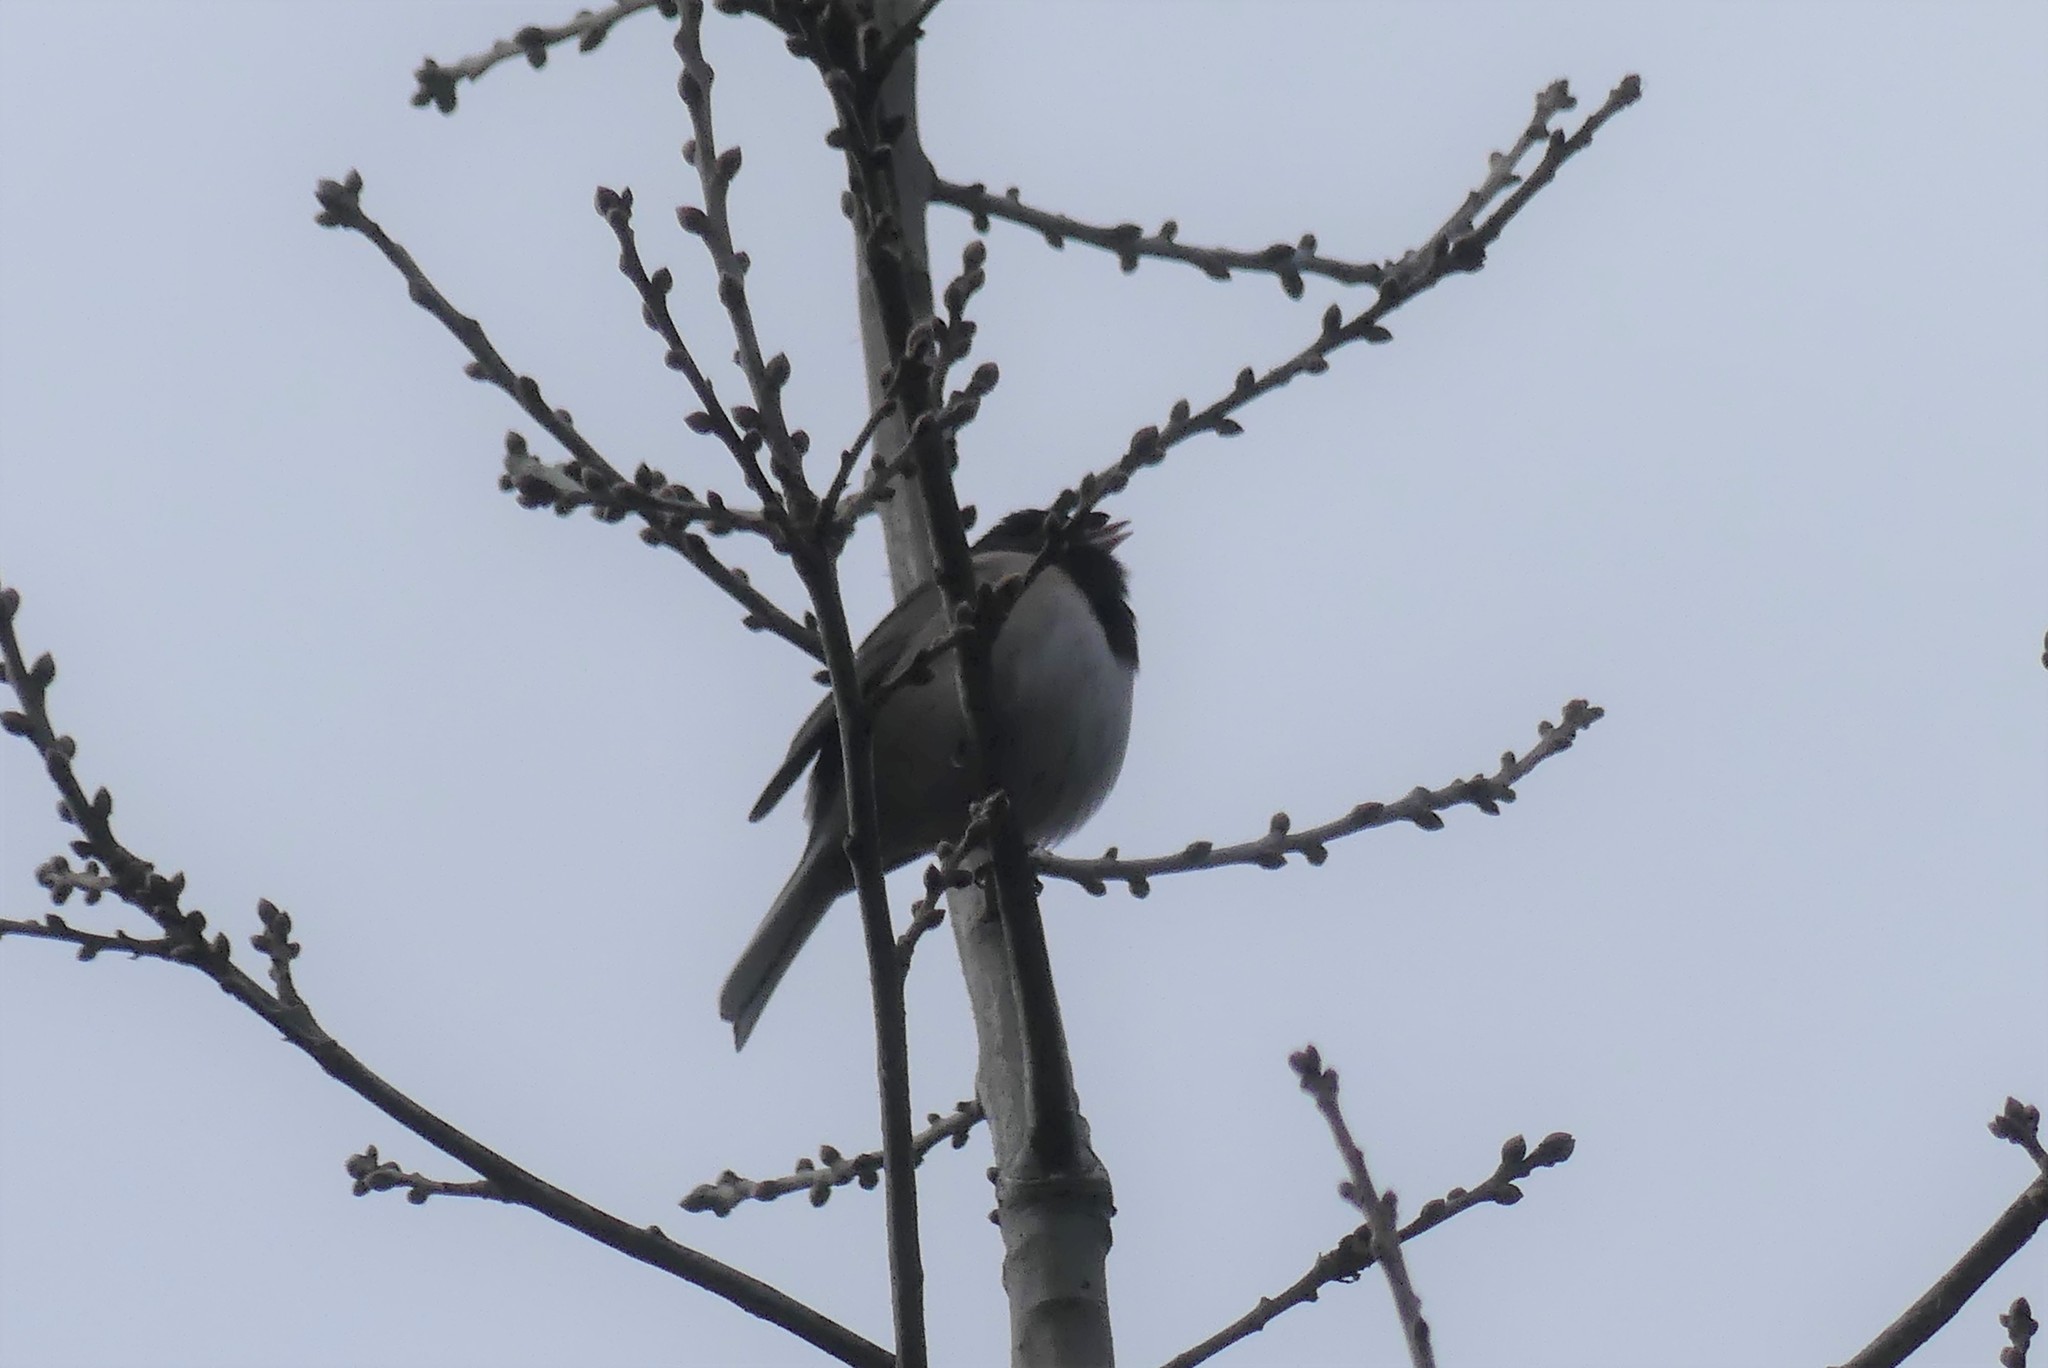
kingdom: Animalia
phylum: Chordata
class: Aves
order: Passeriformes
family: Passerellidae
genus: Junco
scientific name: Junco hyemalis
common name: Dark-eyed junco
